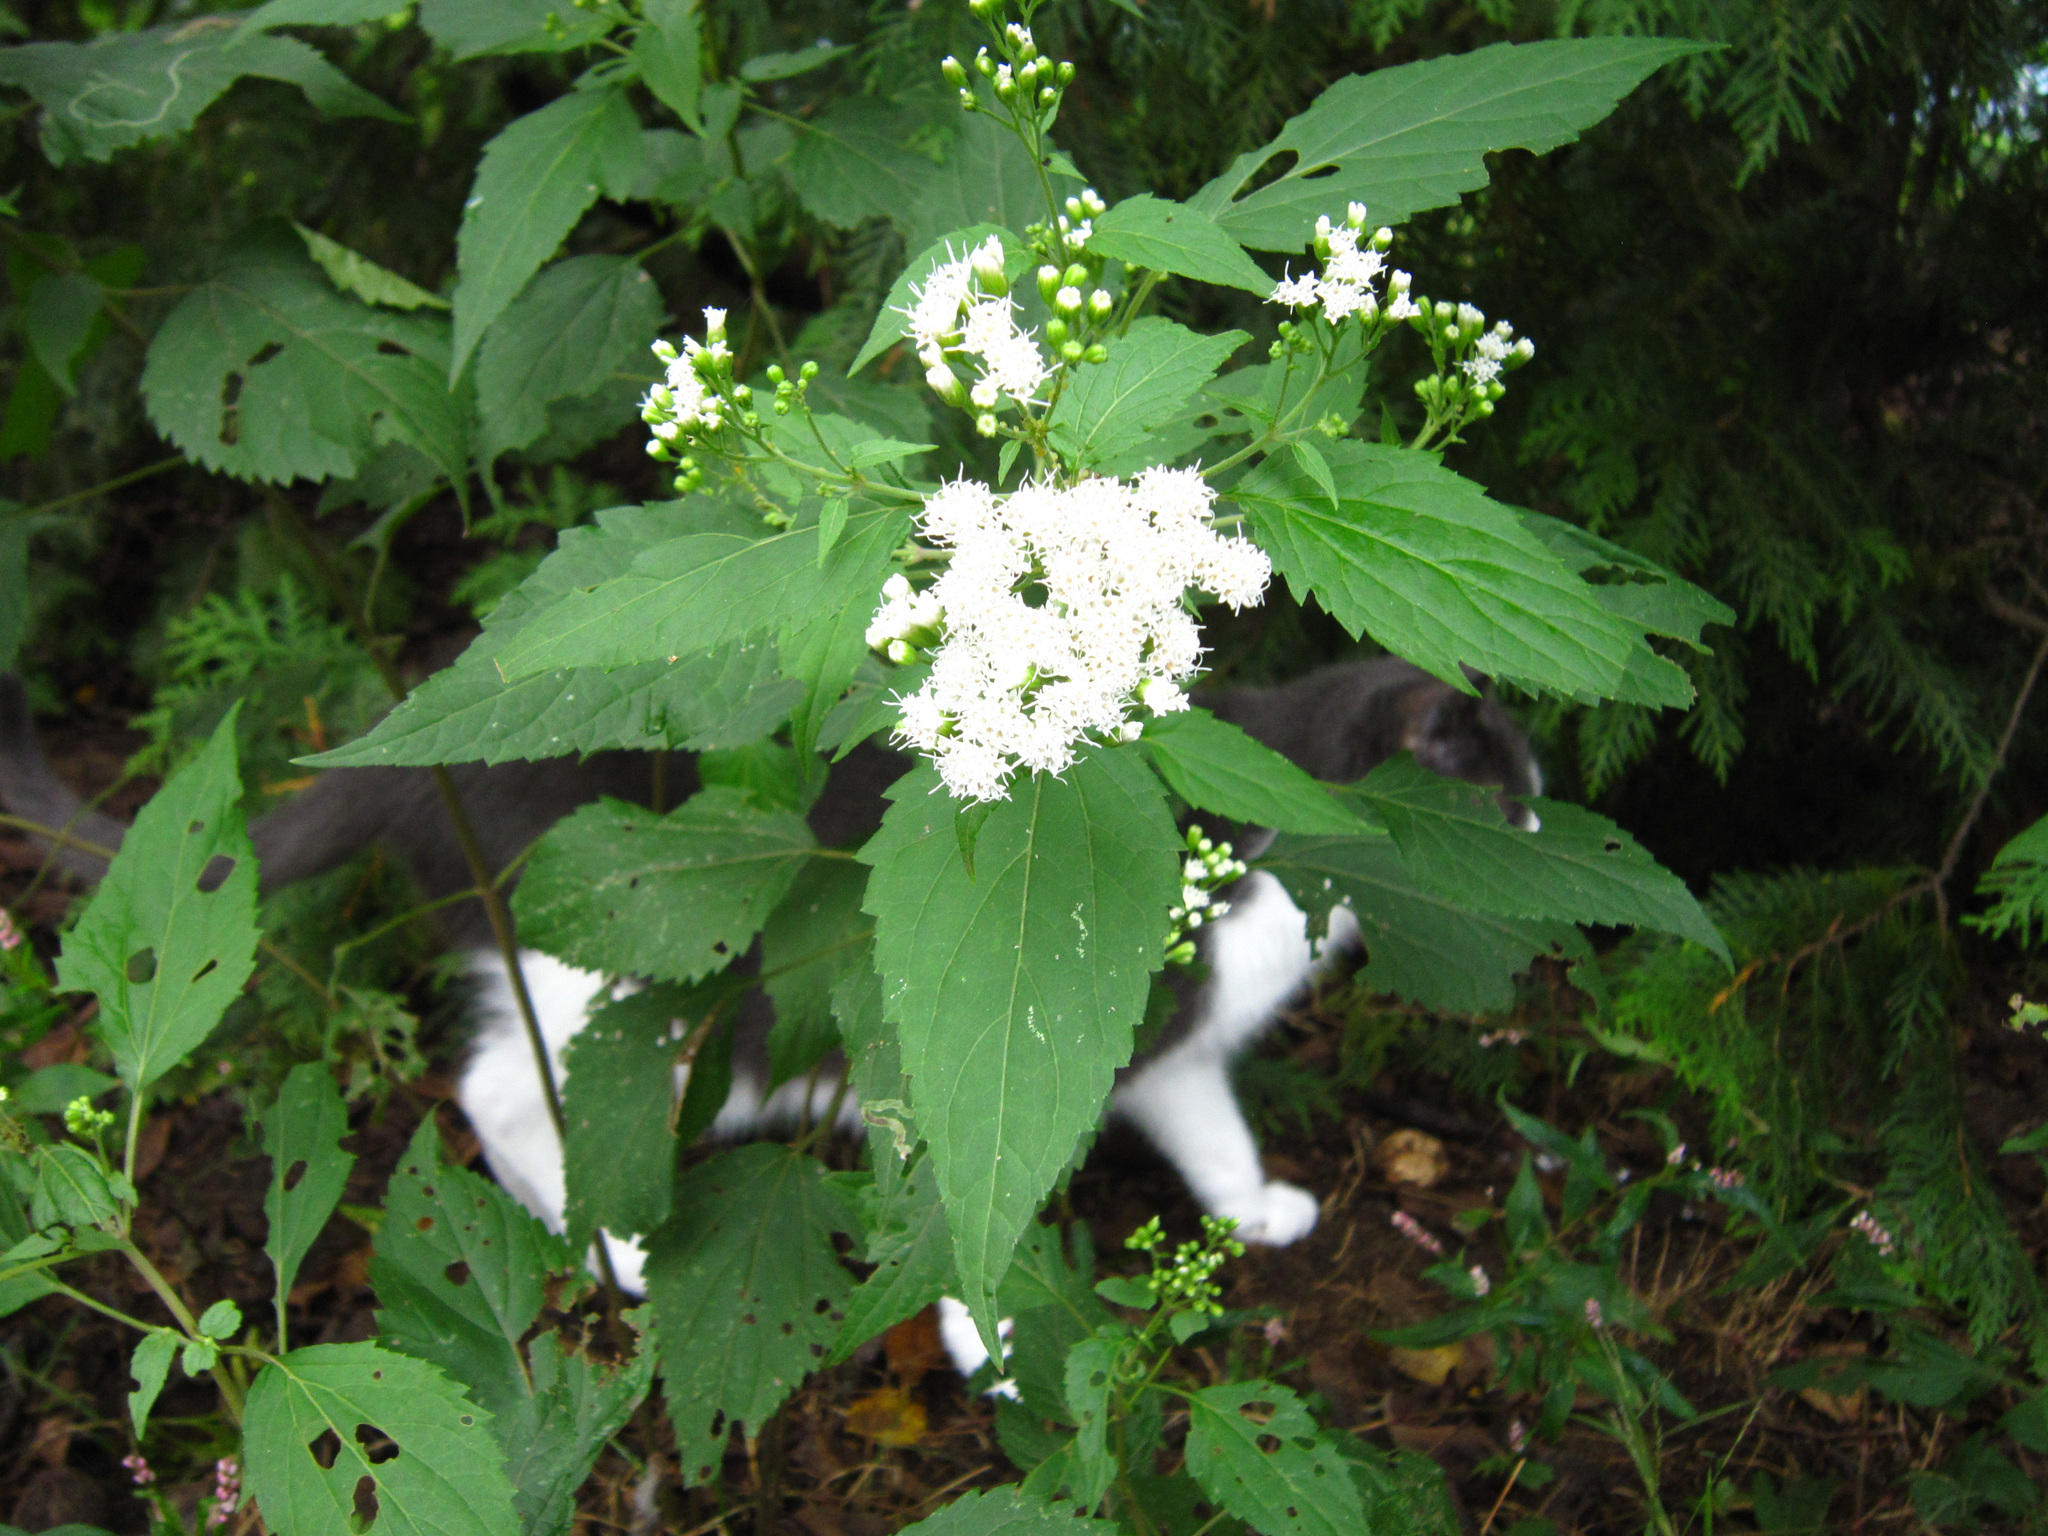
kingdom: Plantae
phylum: Tracheophyta
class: Magnoliopsida
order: Asterales
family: Asteraceae
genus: Ageratina
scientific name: Ageratina altissima
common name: White snakeroot
